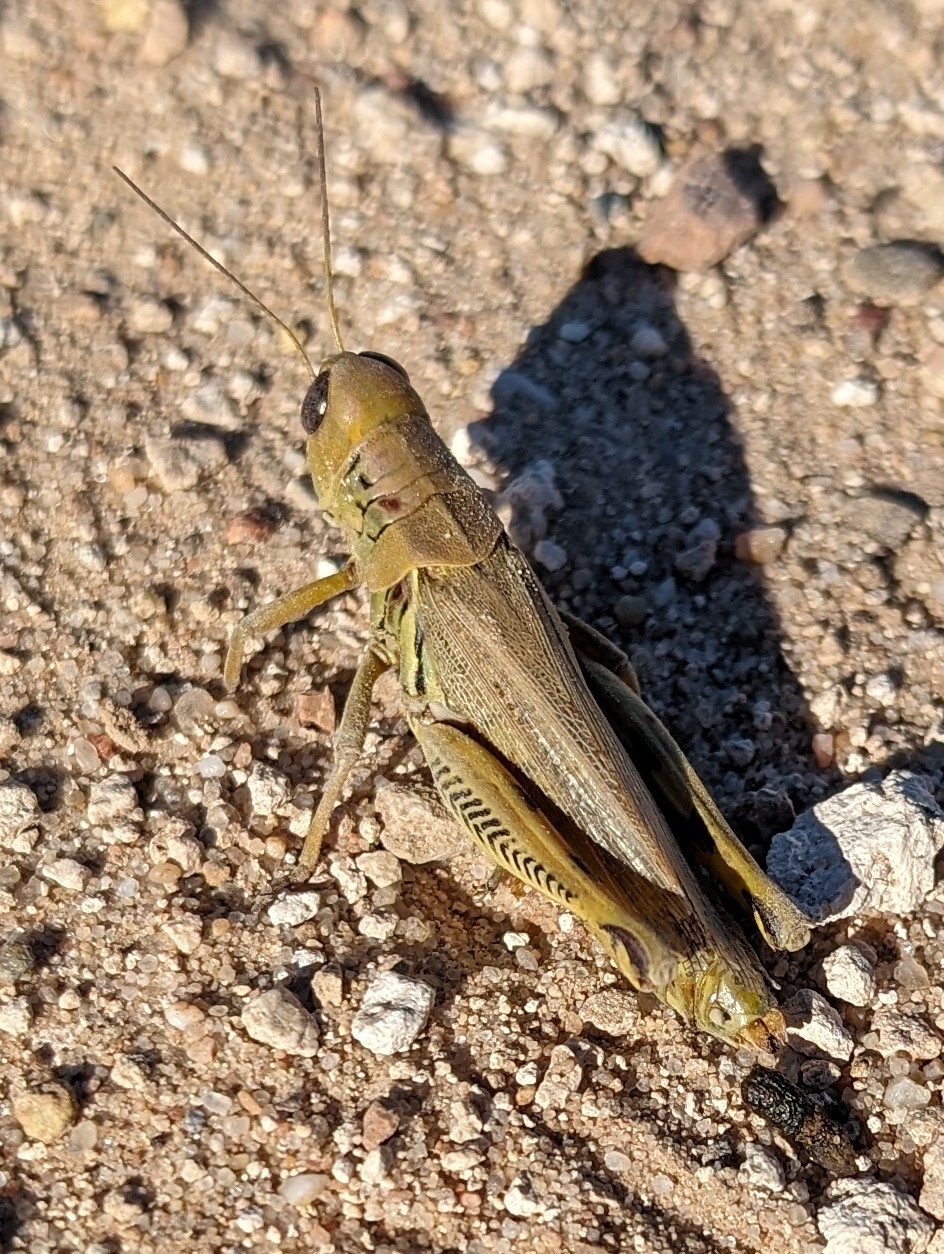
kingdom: Animalia
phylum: Arthropoda
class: Insecta
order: Orthoptera
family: Acrididae
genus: Melanoplus
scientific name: Melanoplus differentialis
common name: Differential grasshopper
